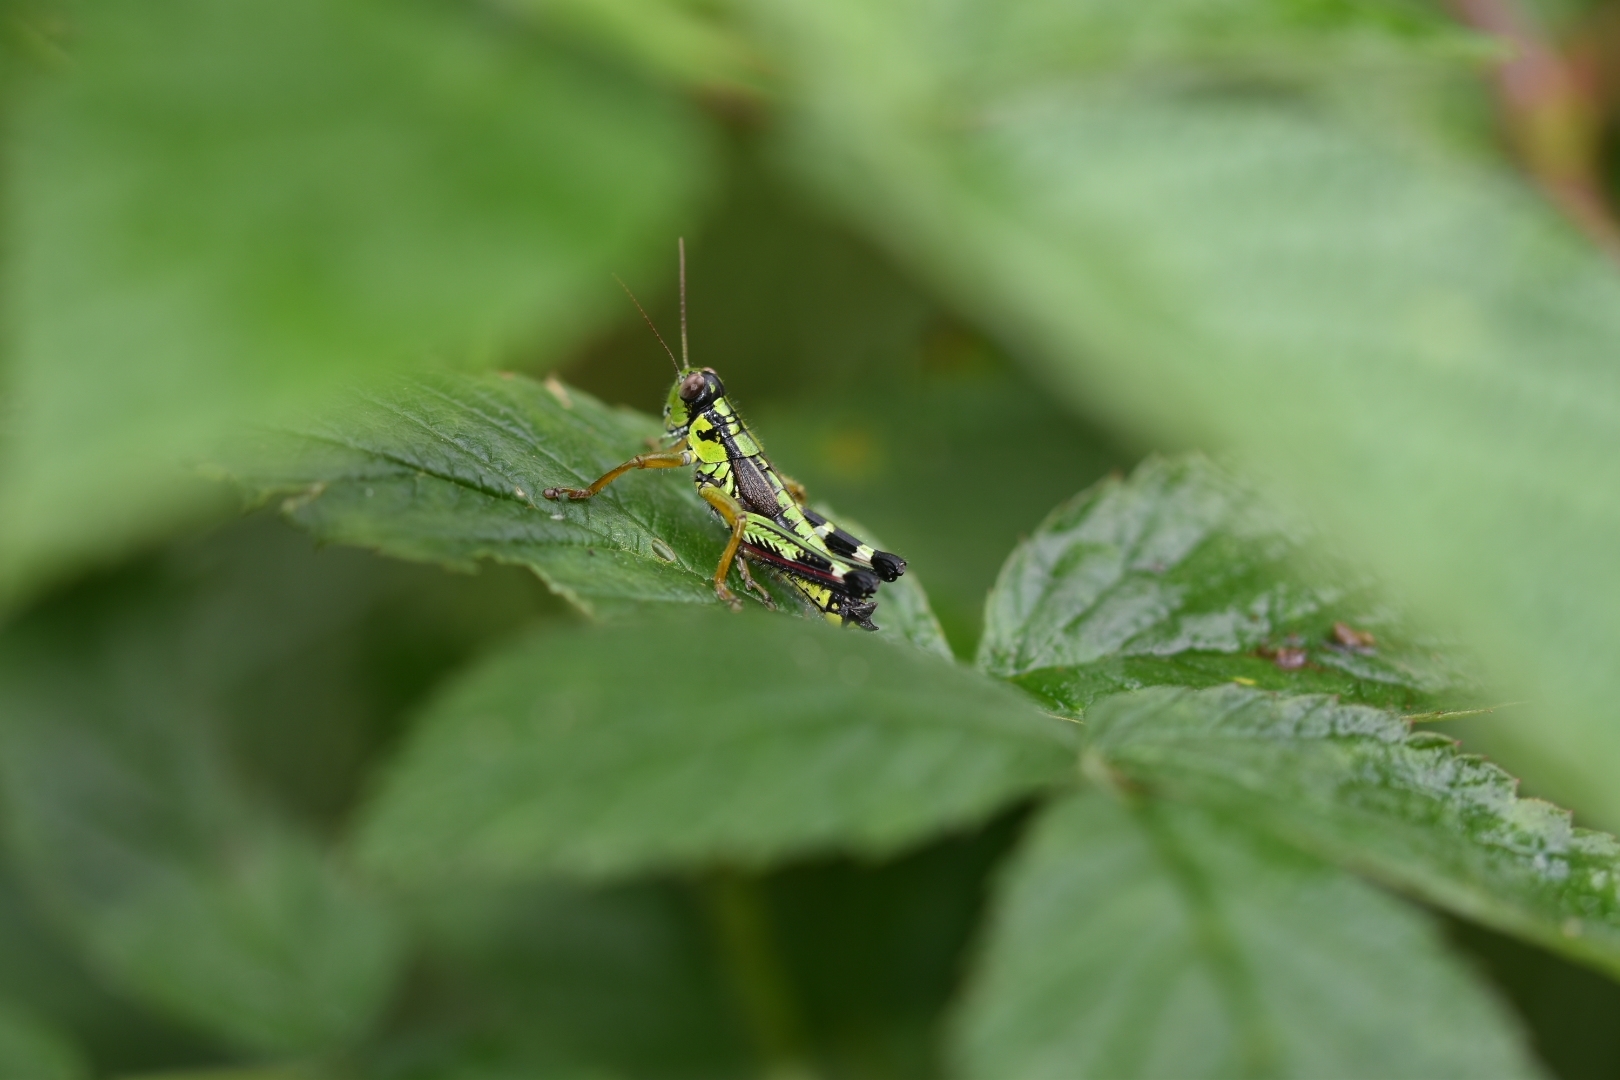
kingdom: Animalia
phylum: Arthropoda
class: Insecta
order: Orthoptera
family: Acrididae
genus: Miramella
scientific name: Miramella alpina
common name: Green mountain grasshopper
